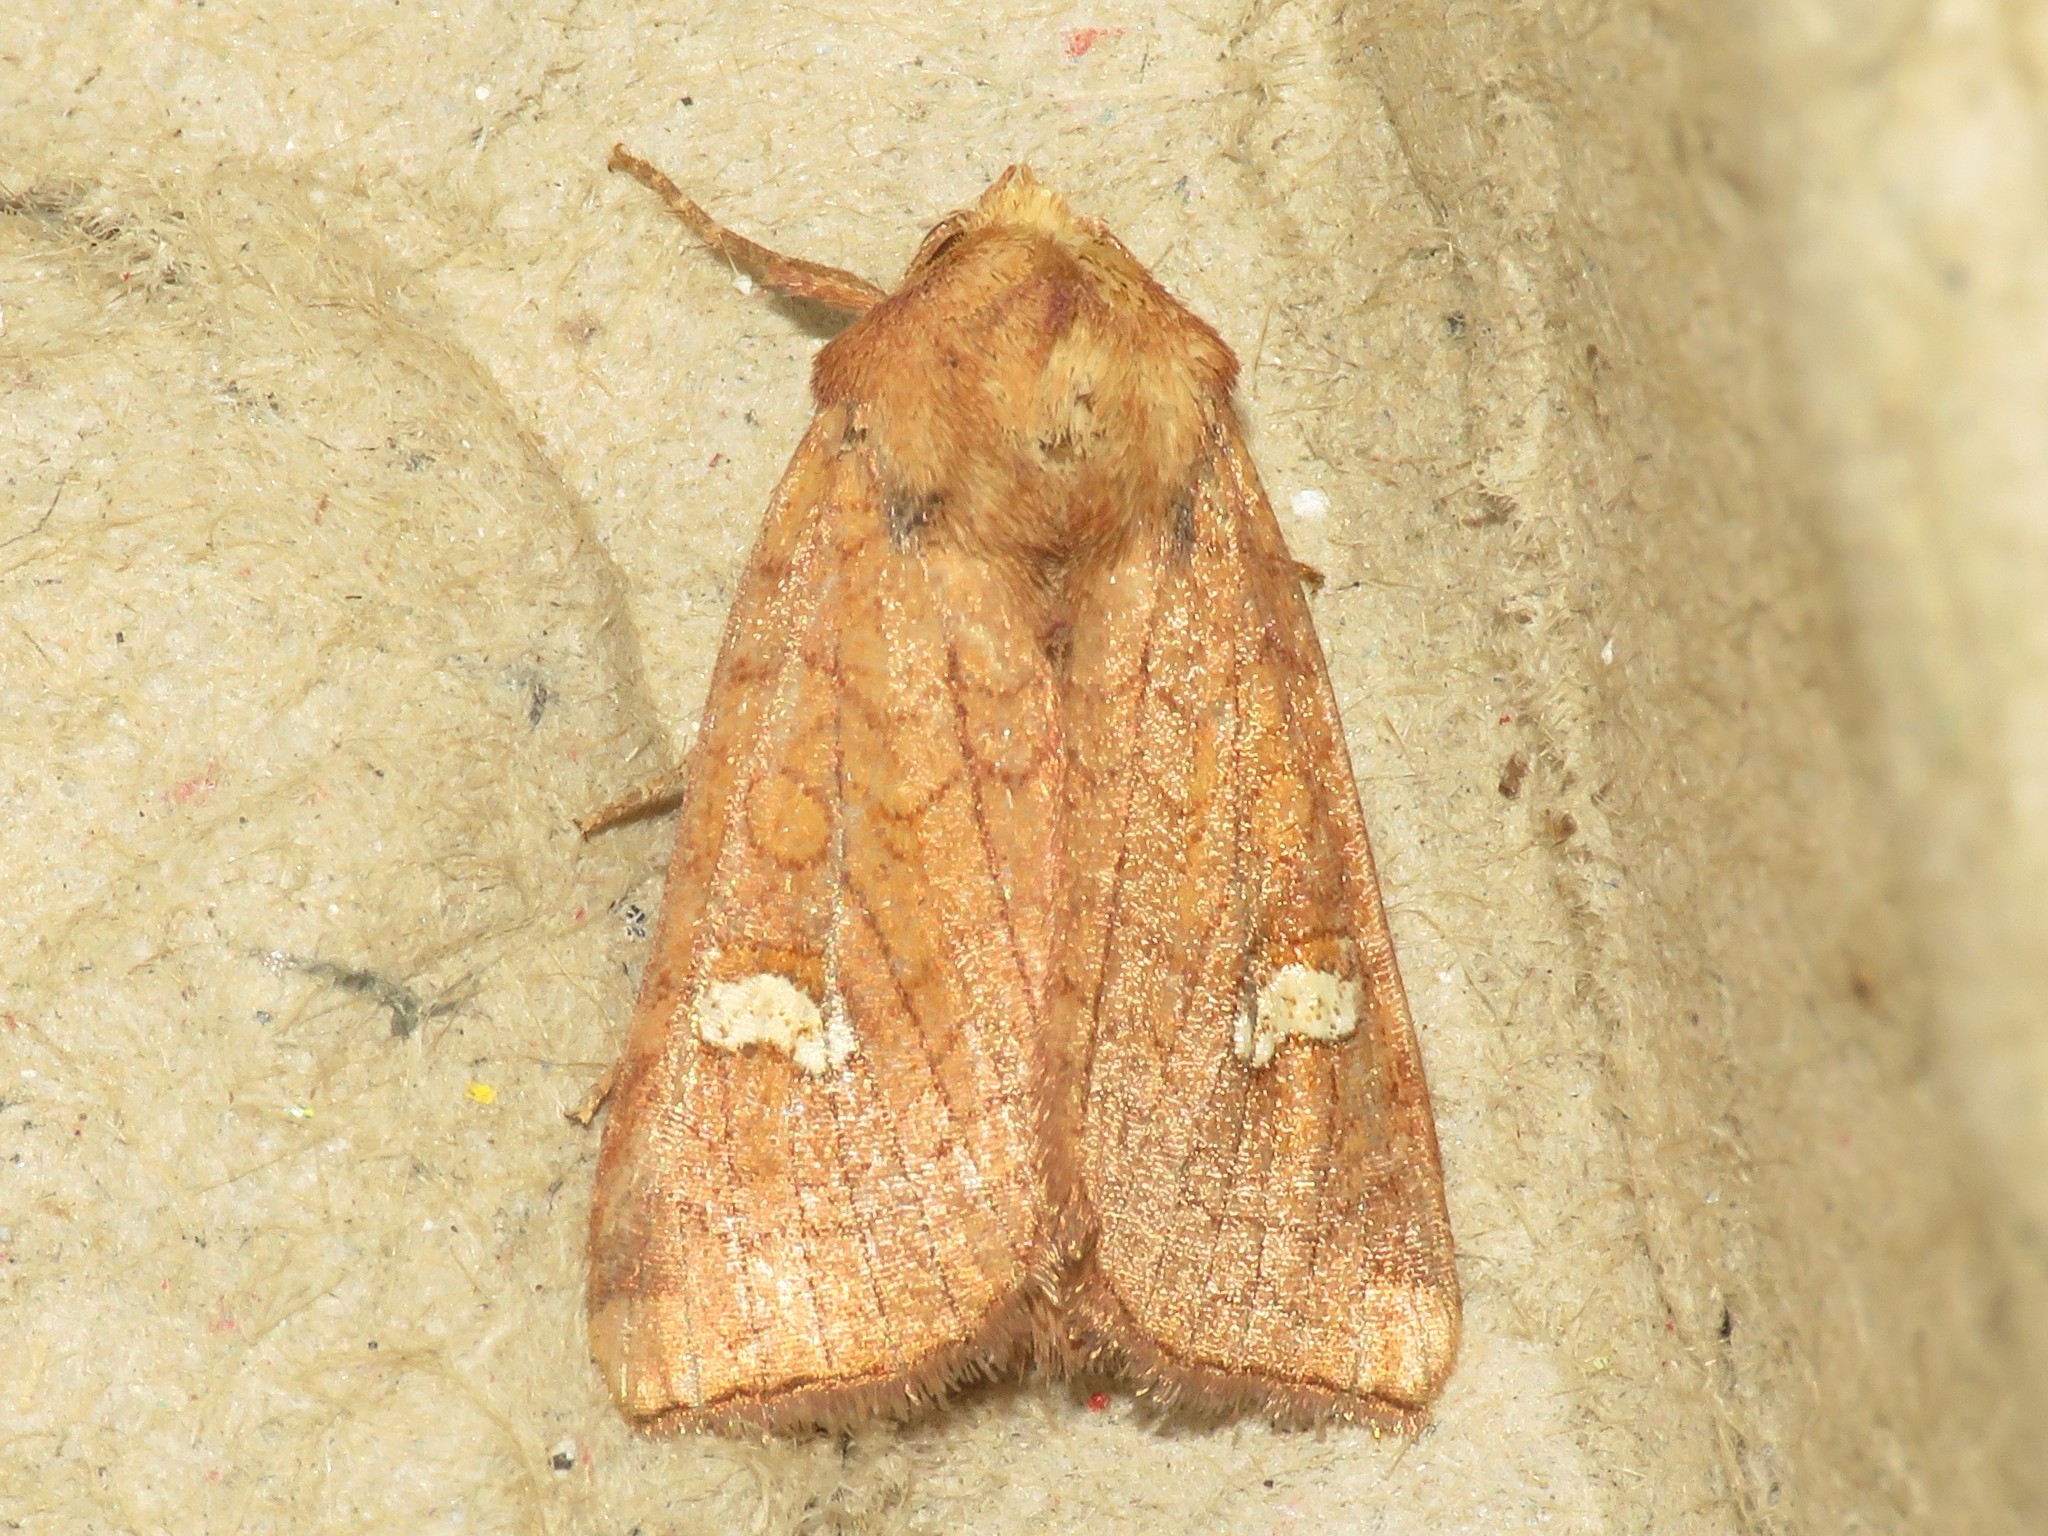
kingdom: Animalia
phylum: Arthropoda
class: Insecta
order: Lepidoptera
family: Noctuidae
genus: Amphipoea
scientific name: Amphipoea americana
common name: American ear moth
